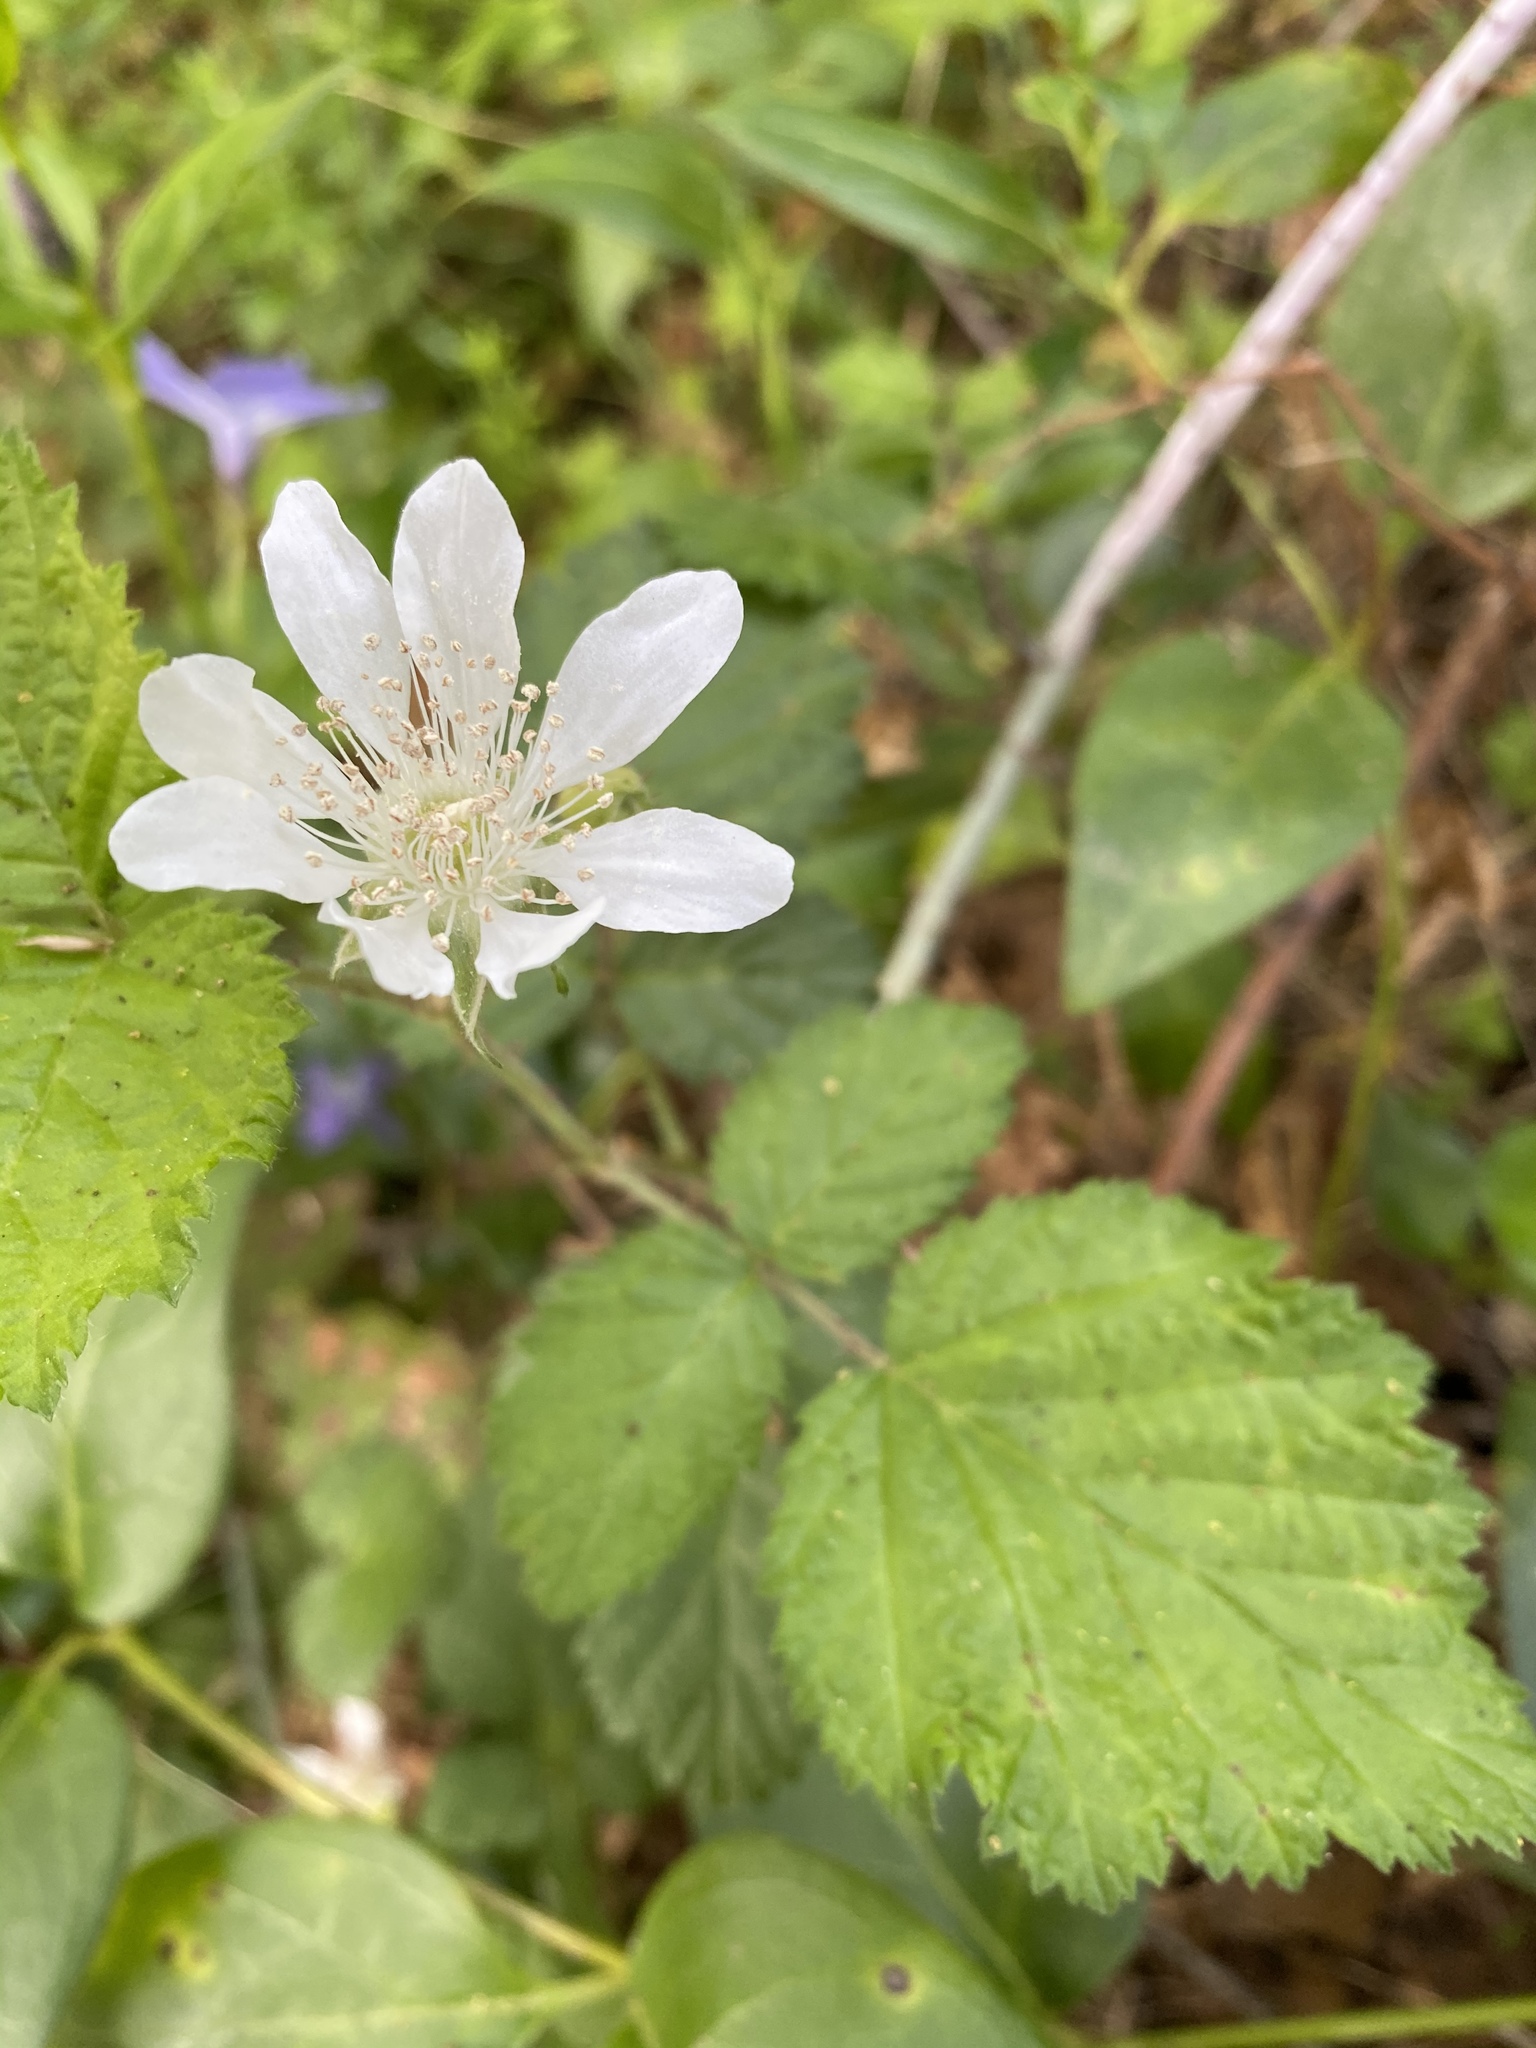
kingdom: Plantae
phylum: Tracheophyta
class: Magnoliopsida
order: Rosales
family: Rosaceae
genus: Rubus
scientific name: Rubus ursinus
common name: Pacific blackberry
